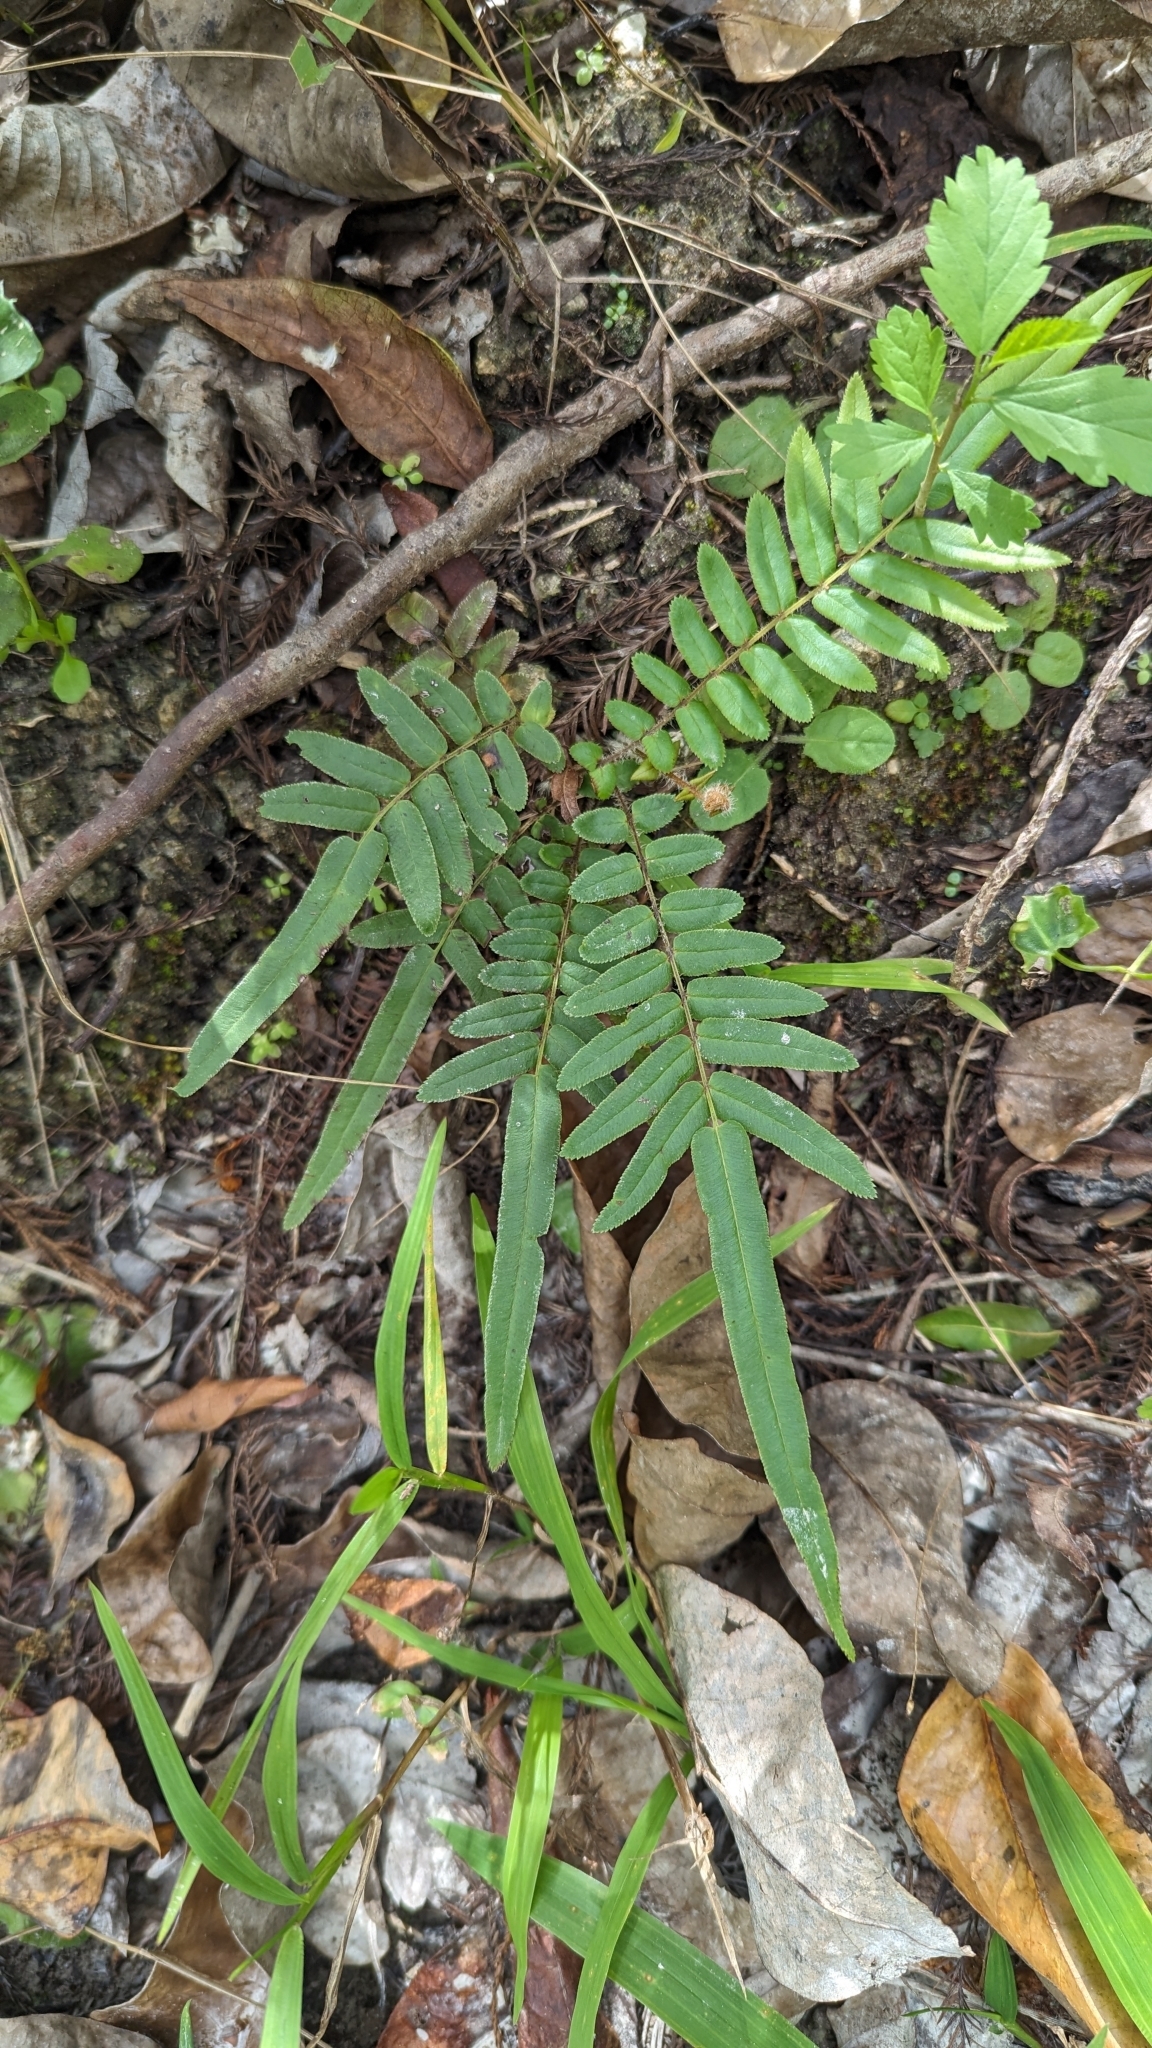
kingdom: Plantae
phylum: Tracheophyta
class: Polypodiopsida
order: Polypodiales
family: Pteridaceae
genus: Pteris
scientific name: Pteris vittata
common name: Ladder brake
